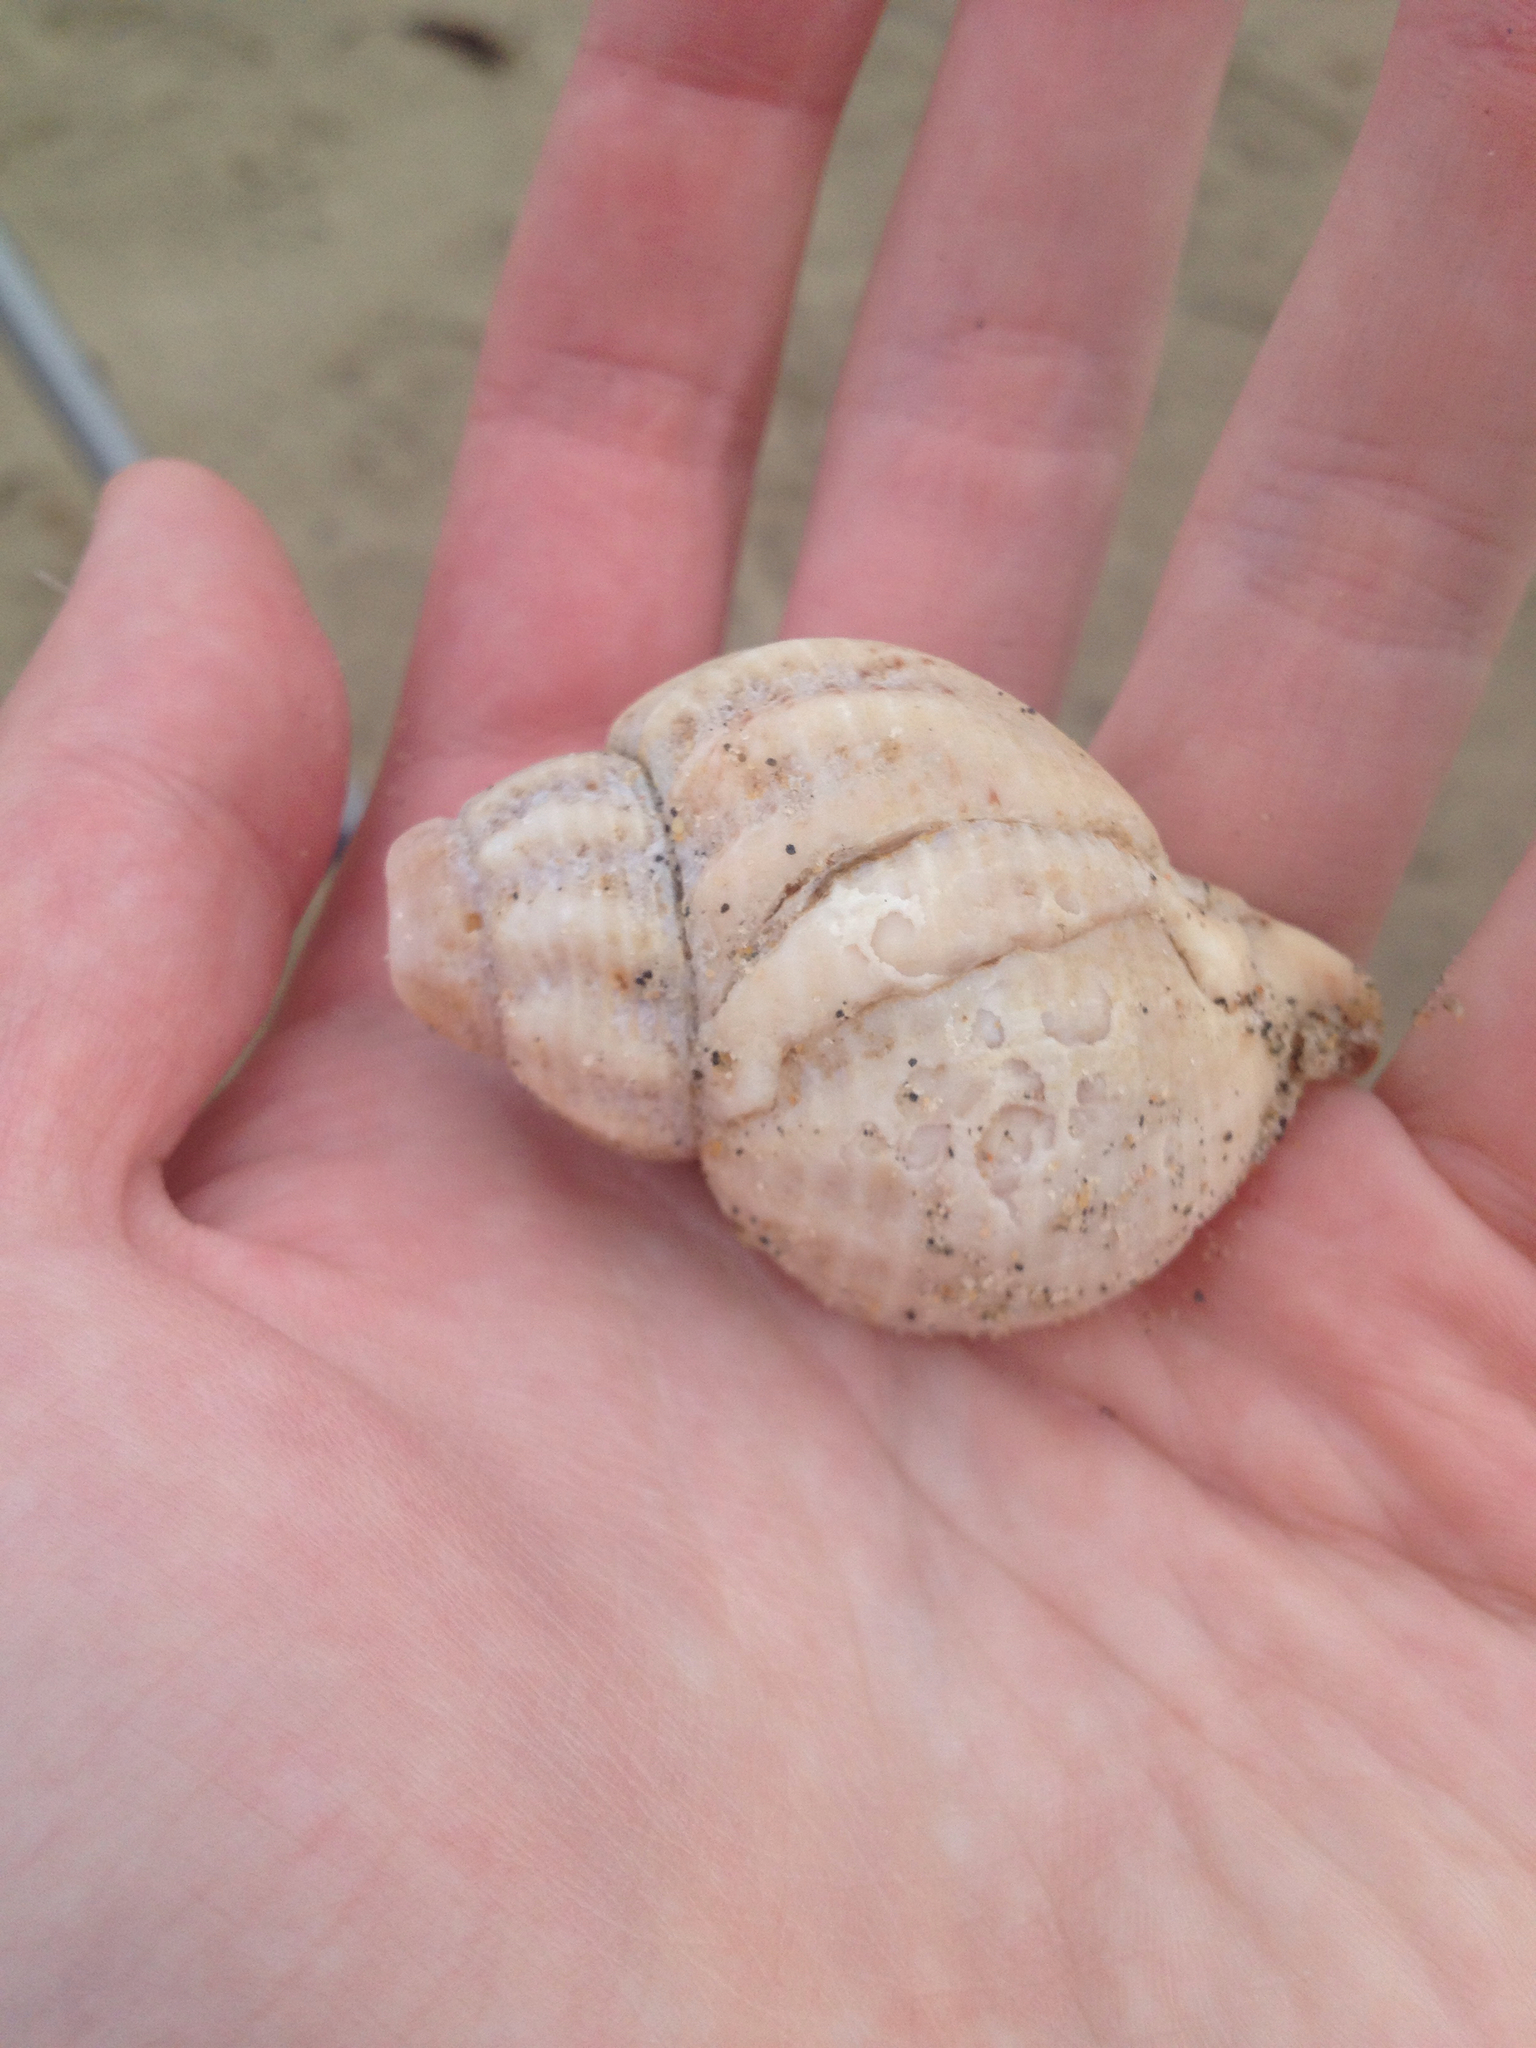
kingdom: Animalia
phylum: Mollusca
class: Gastropoda
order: Neogastropoda
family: Buccinidae
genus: Buccinum
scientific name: Buccinum undatum
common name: Common whelk
